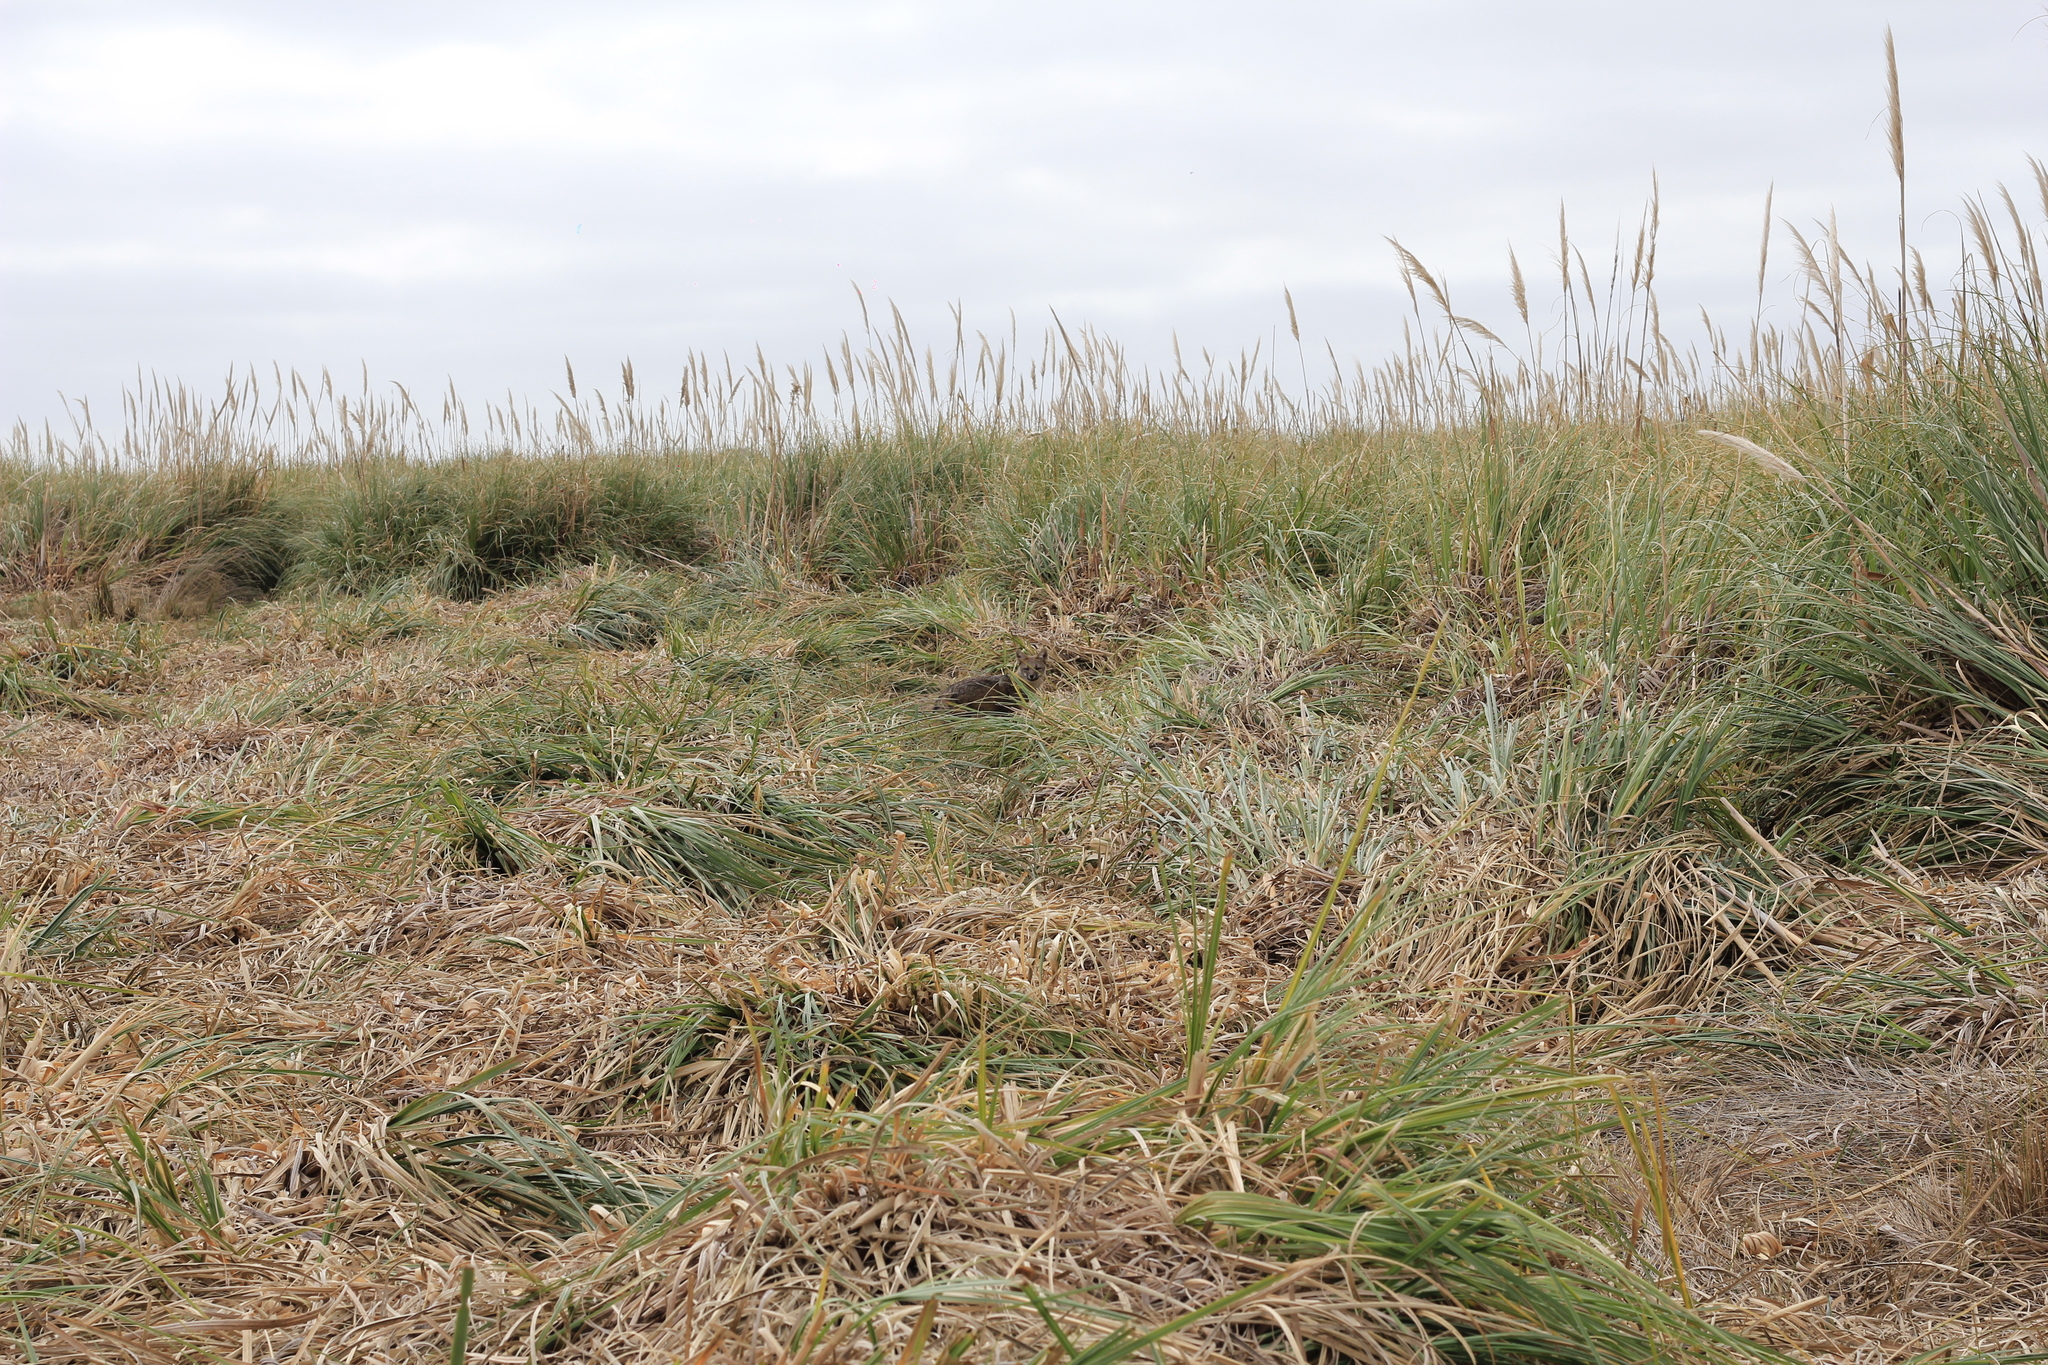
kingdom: Animalia
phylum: Chordata
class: Mammalia
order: Carnivora
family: Canidae
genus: Lycalopex
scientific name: Lycalopex gymnocercus
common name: Pampas fox
